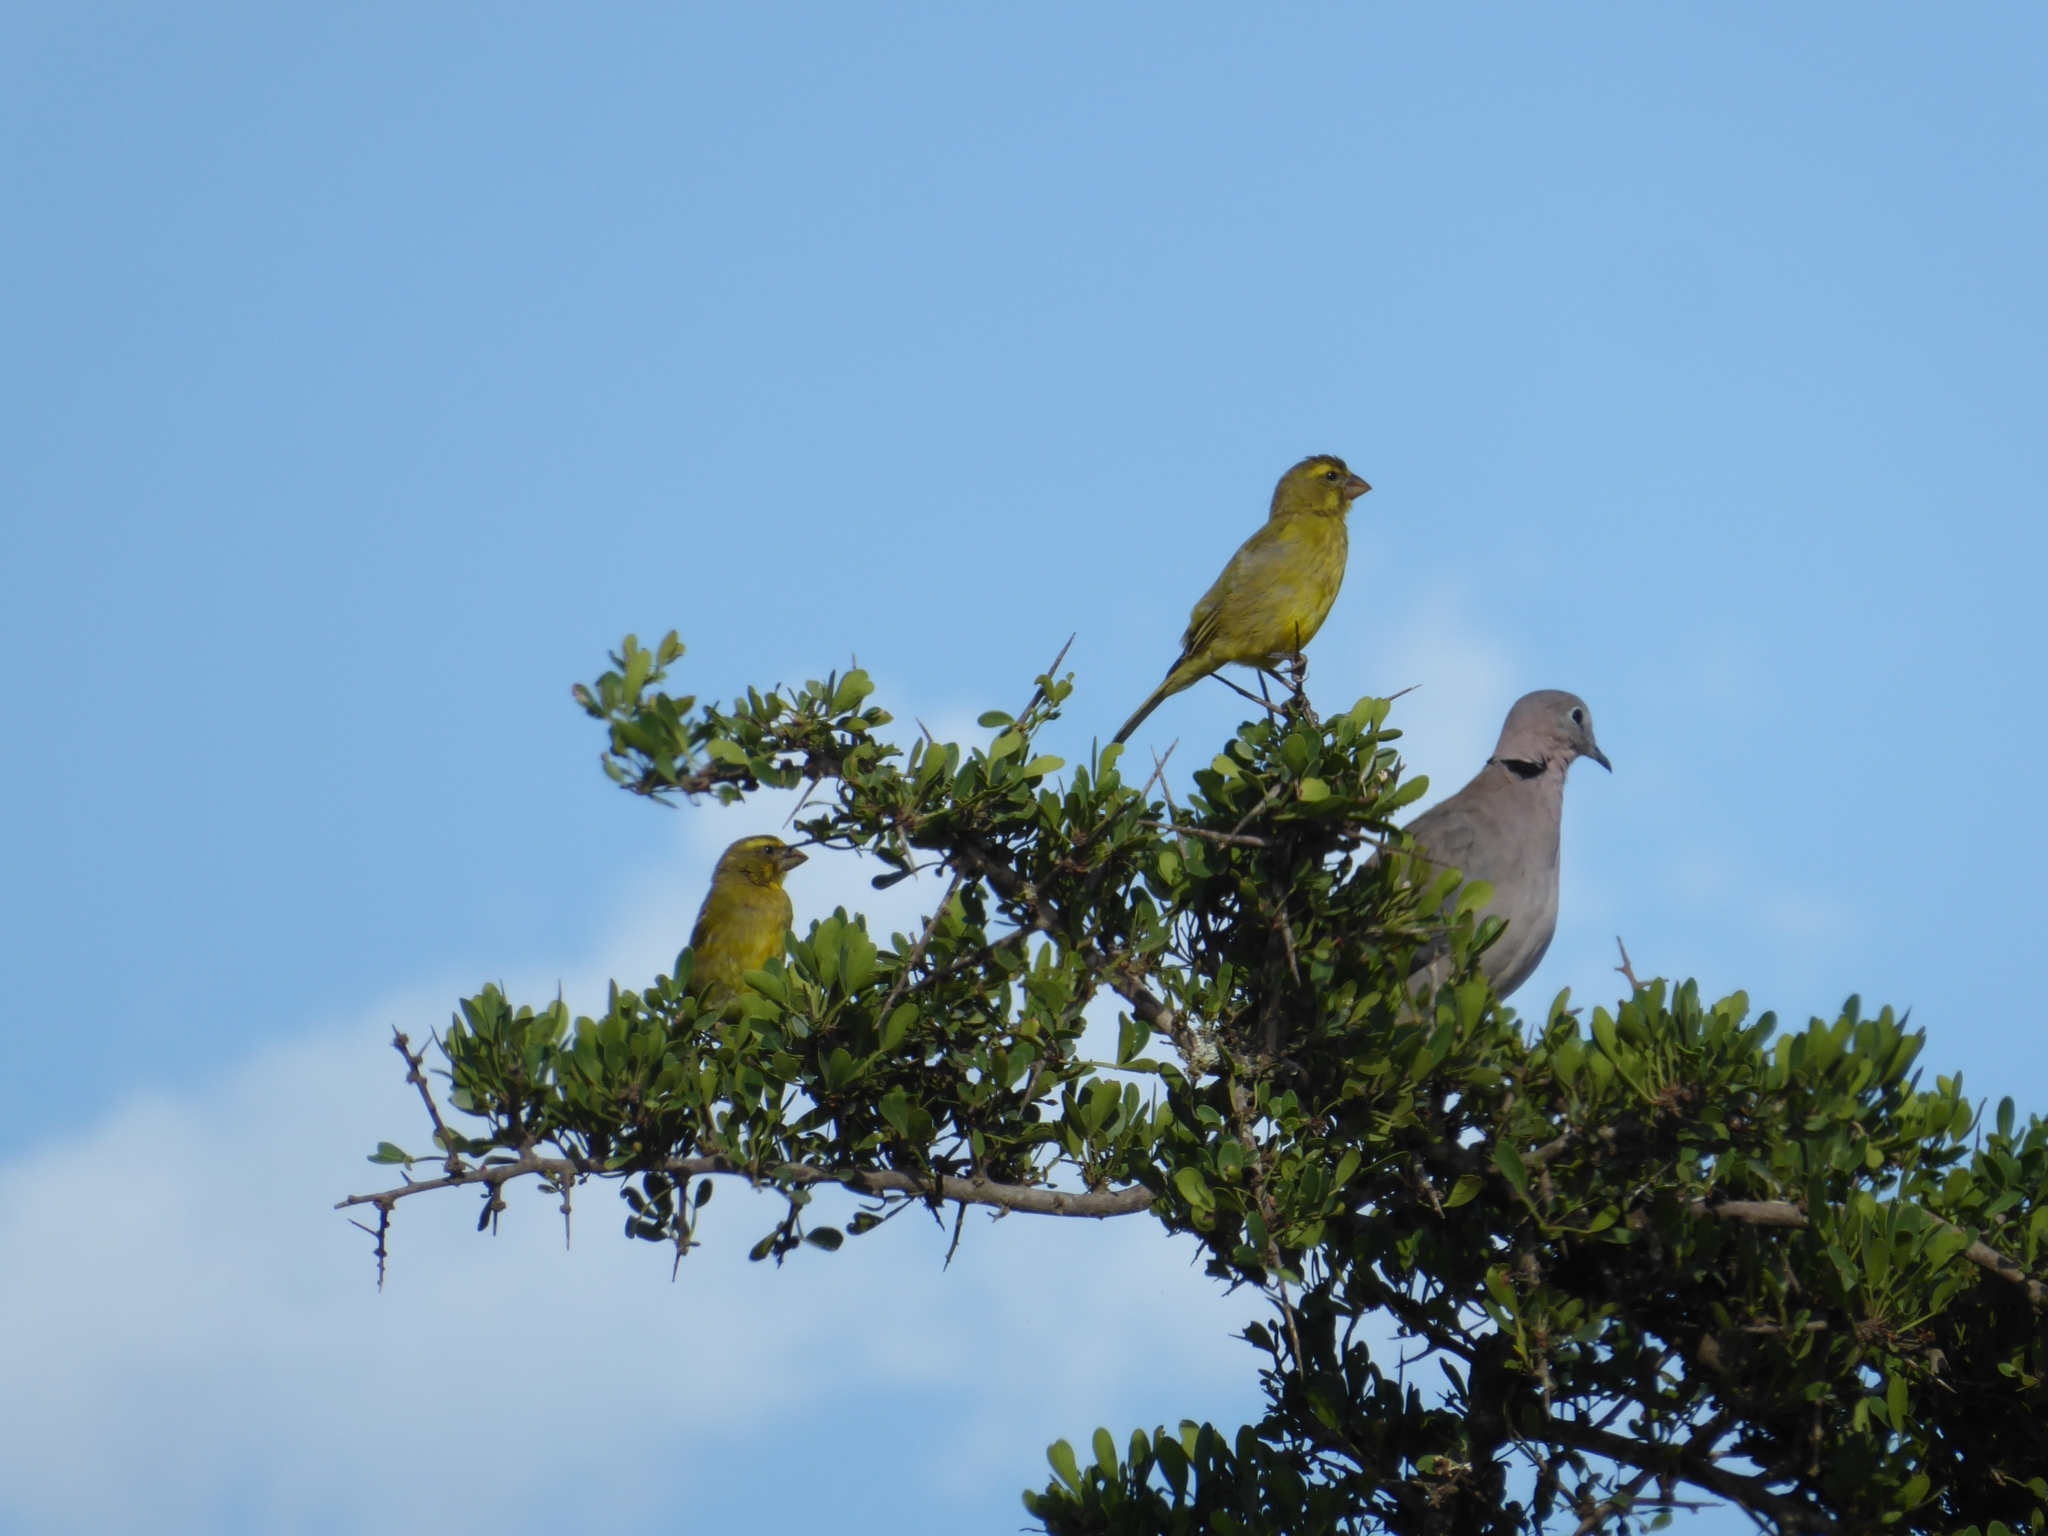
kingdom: Animalia
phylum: Chordata
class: Aves
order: Passeriformes
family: Fringillidae
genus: Crithagra
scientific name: Crithagra sulphurata
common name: Brimstone canary
